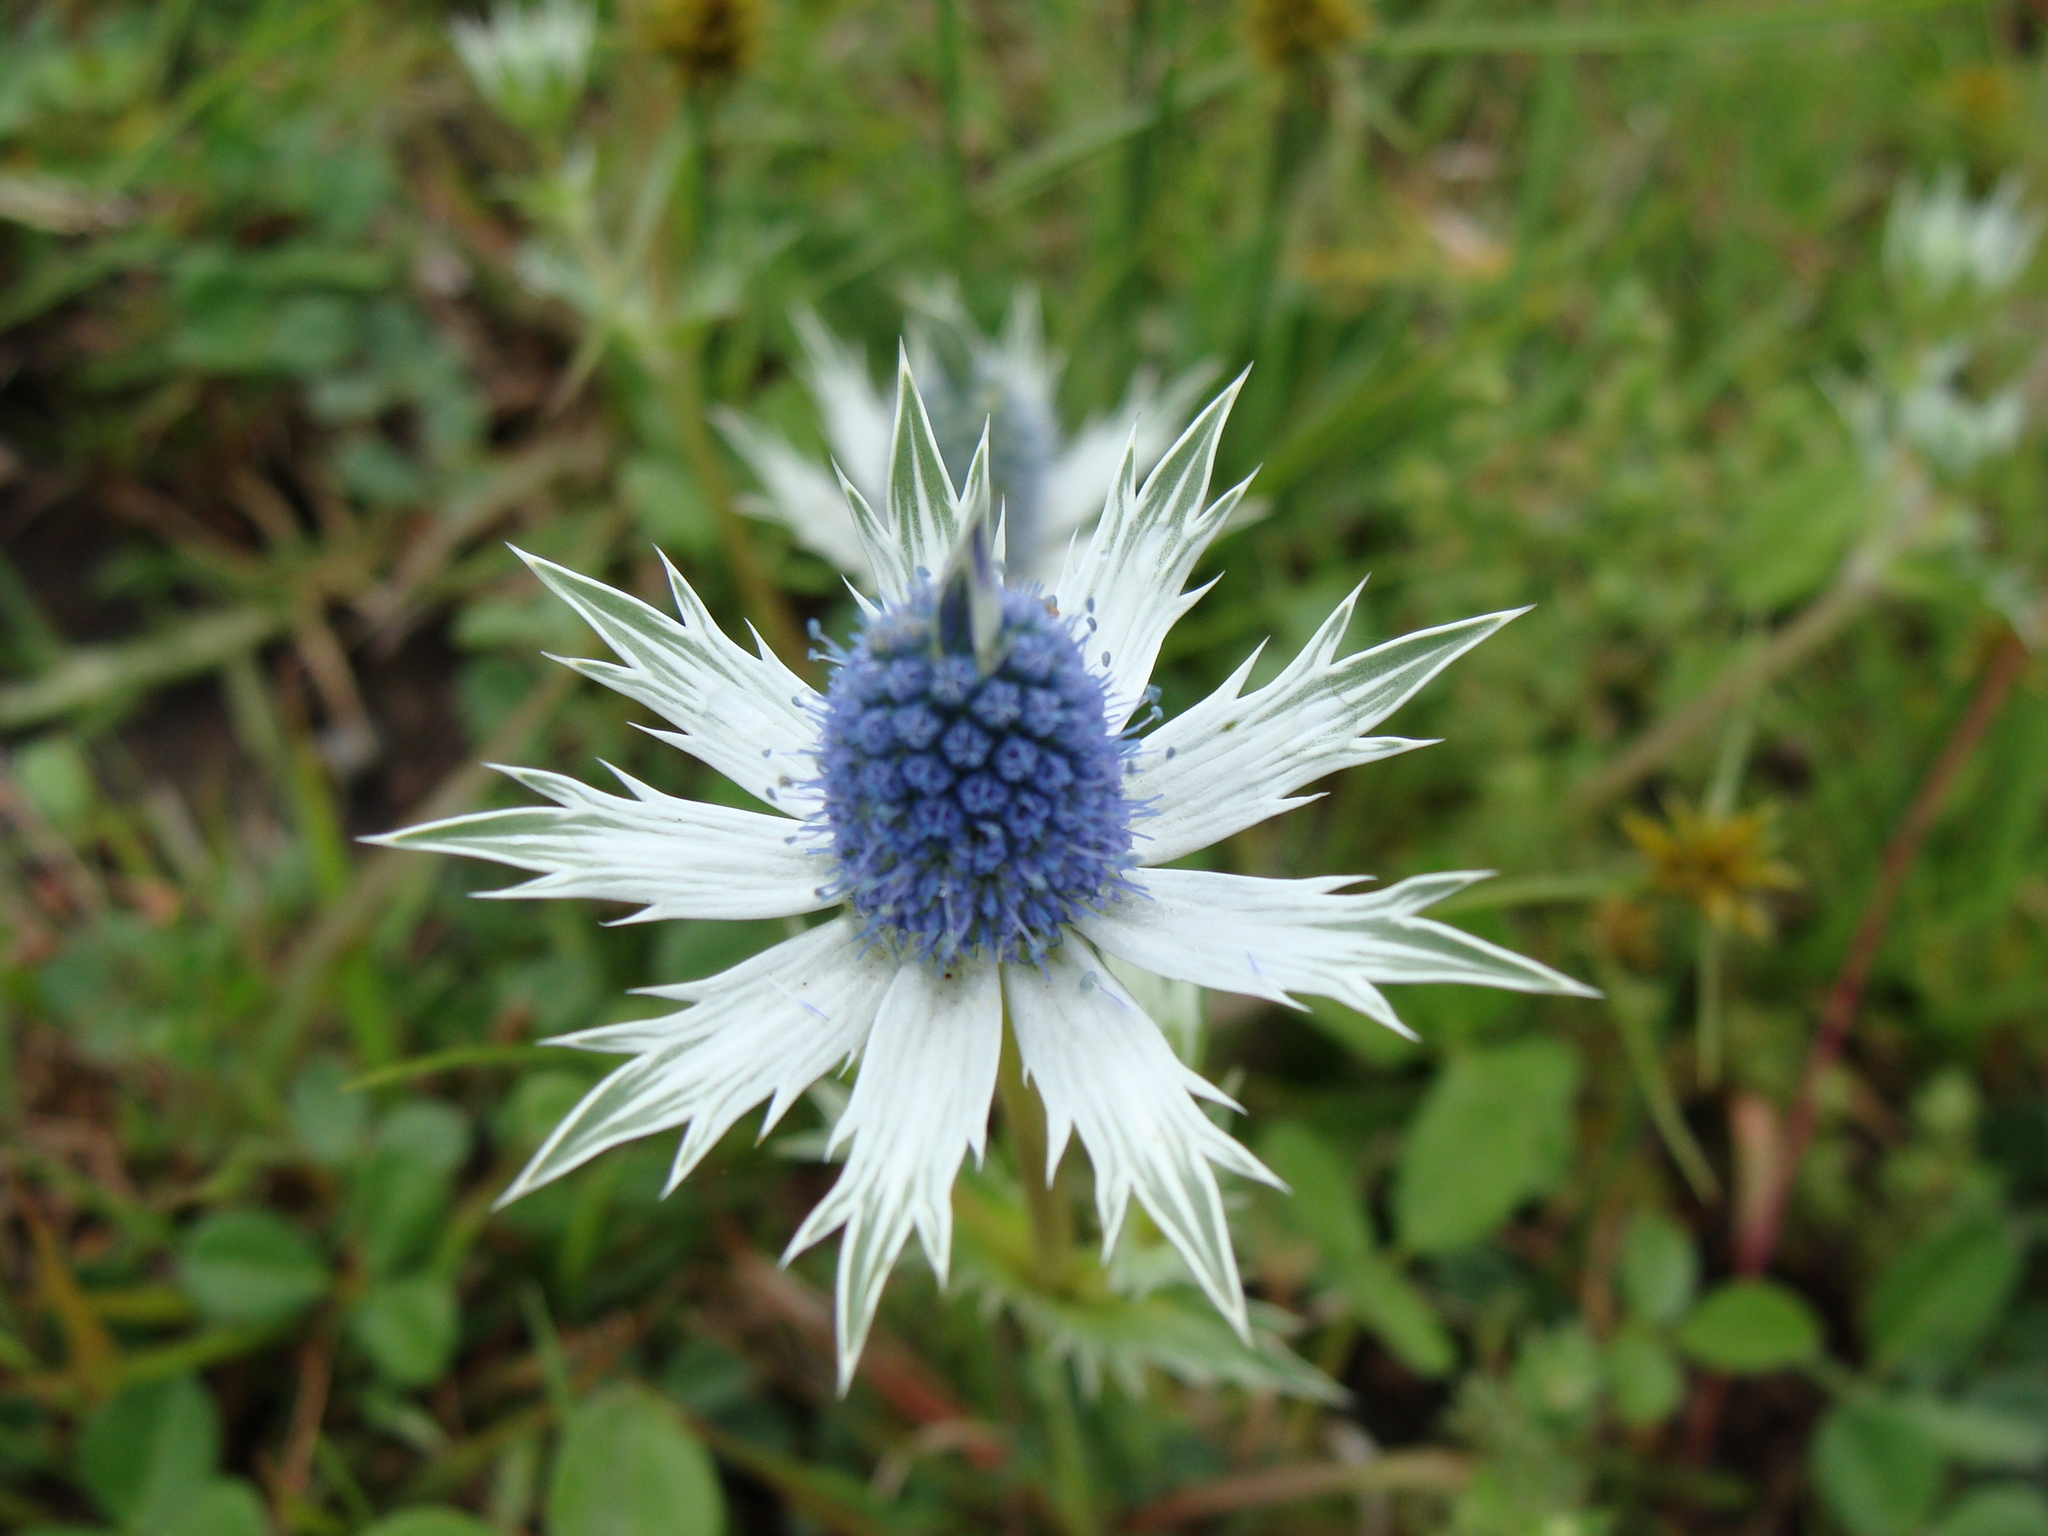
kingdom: Plantae
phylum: Tracheophyta
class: Magnoliopsida
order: Apiales
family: Apiaceae
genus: Eryngium
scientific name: Eryngium carlinae
